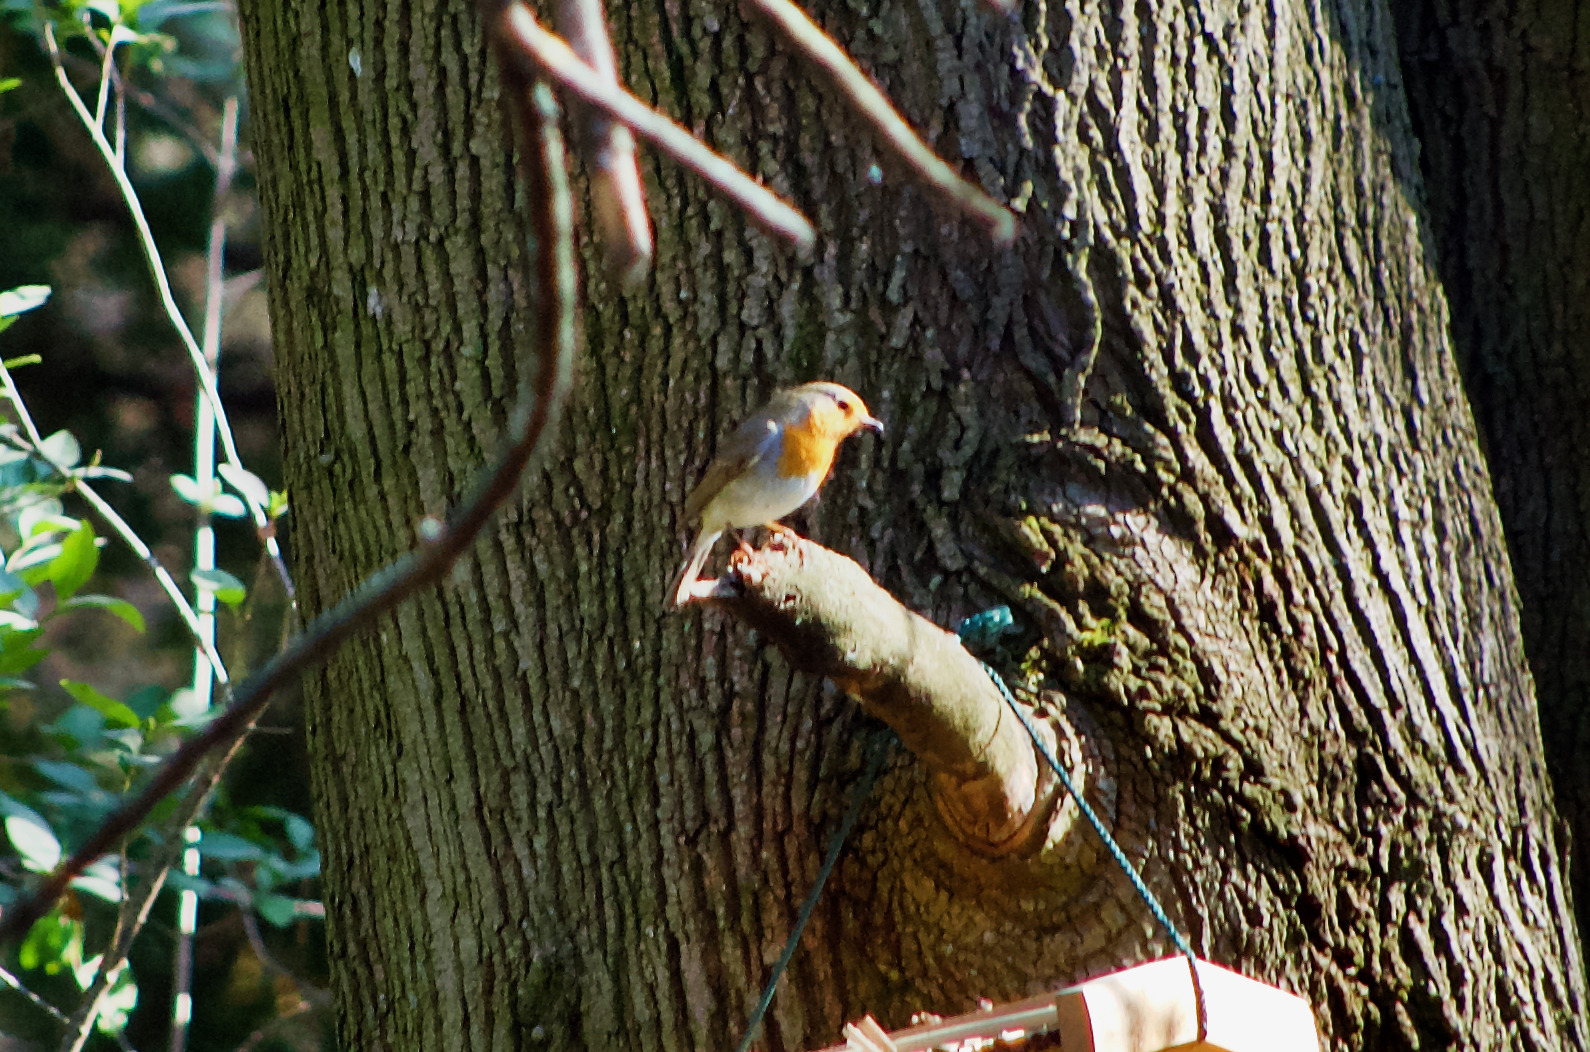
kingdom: Animalia
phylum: Chordata
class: Aves
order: Passeriformes
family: Muscicapidae
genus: Erithacus
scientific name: Erithacus rubecula
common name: European robin
